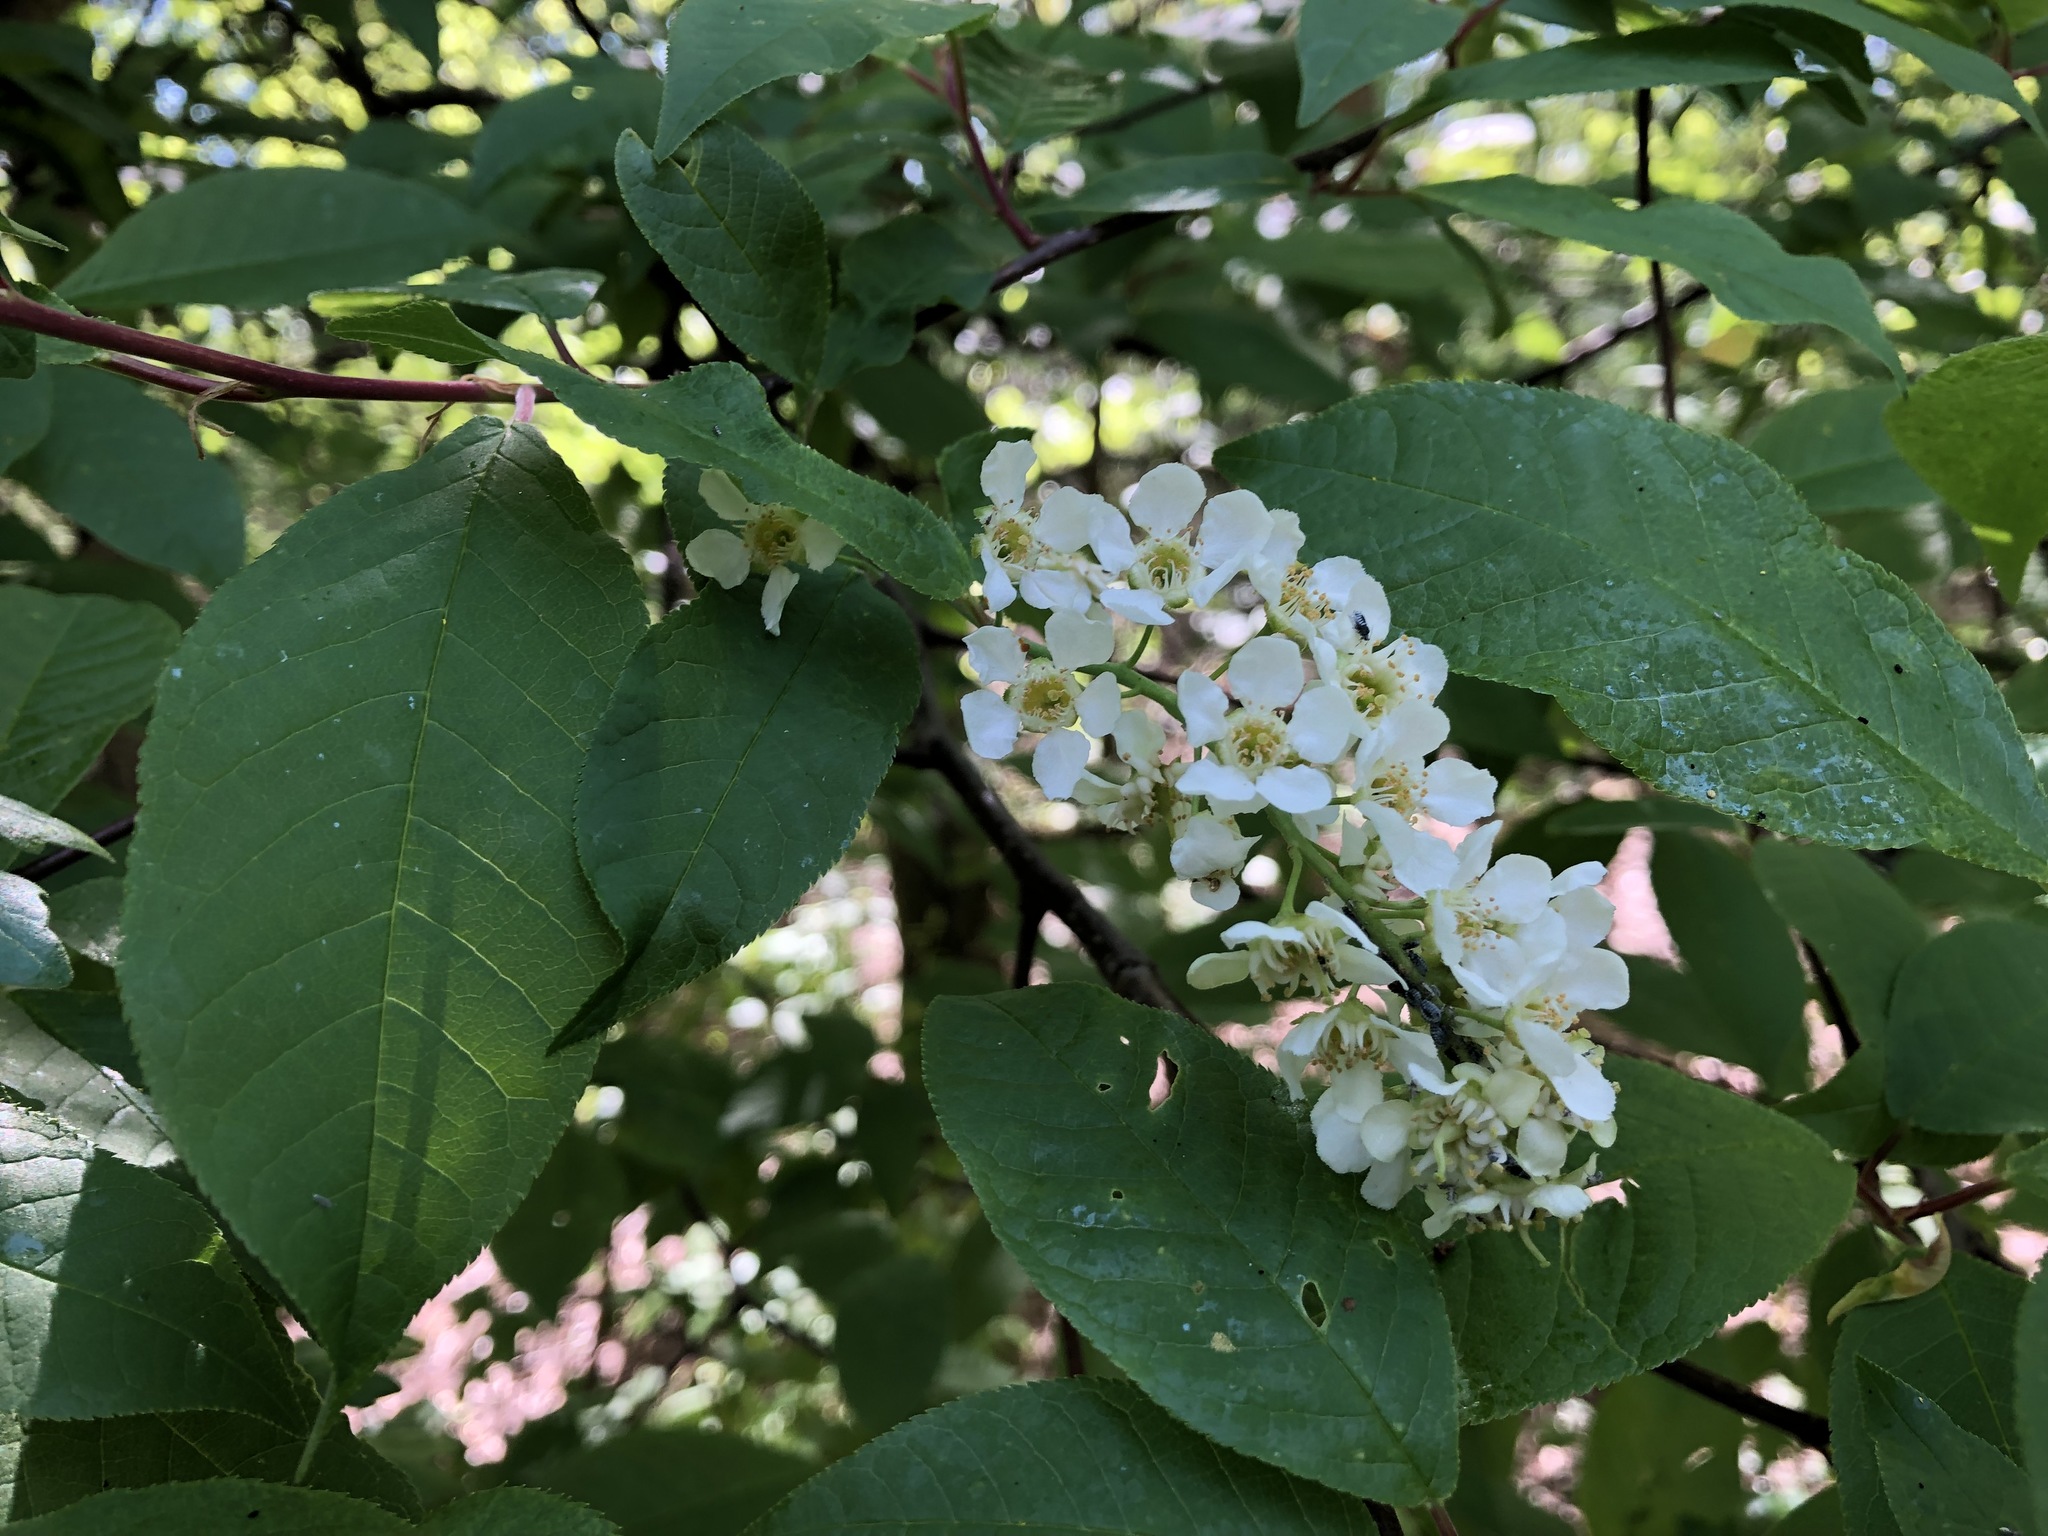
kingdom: Plantae
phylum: Tracheophyta
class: Magnoliopsida
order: Rosales
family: Rosaceae
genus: Prunus
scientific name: Prunus padus
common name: Bird cherry
